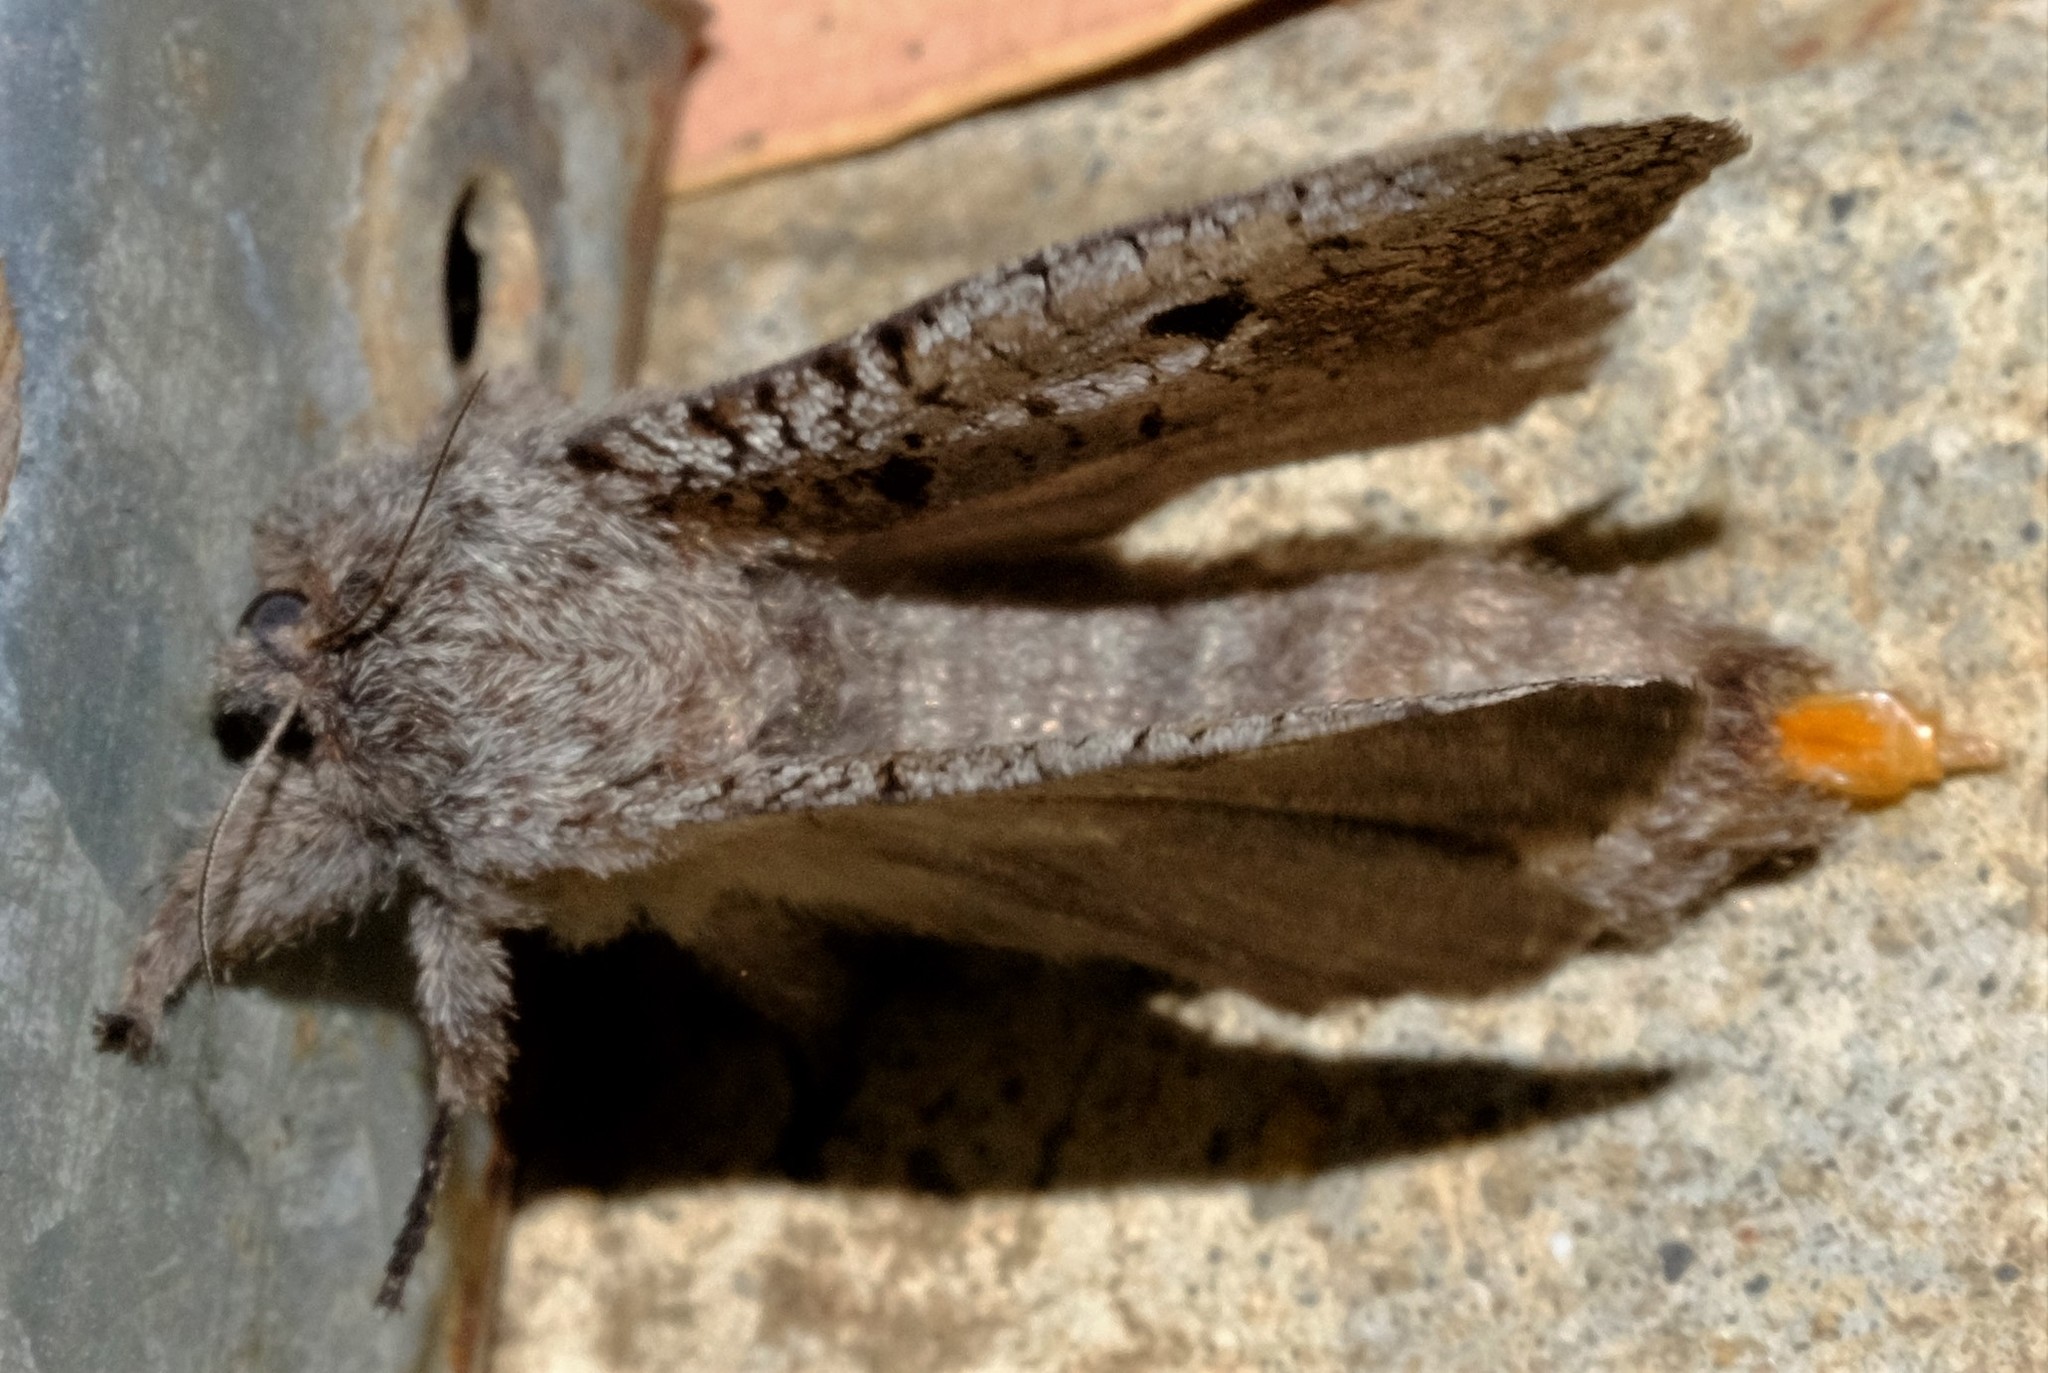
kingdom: Animalia
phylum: Arthropoda
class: Insecta
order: Lepidoptera
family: Cossidae
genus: Sympycnodes
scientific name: Sympycnodes
